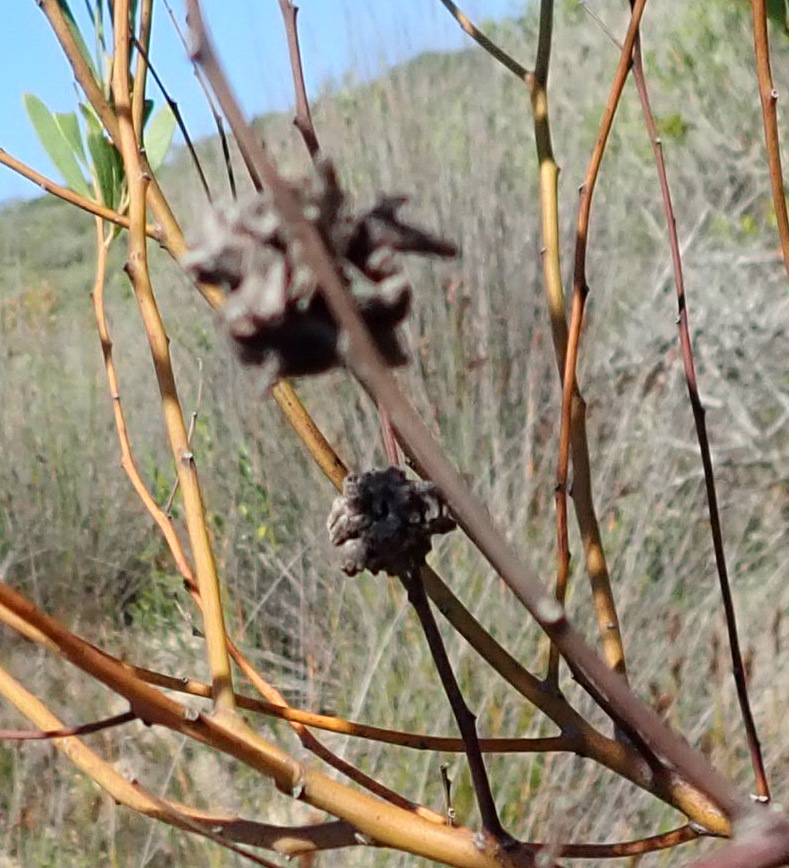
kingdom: Animalia
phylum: Arthropoda
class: Insecta
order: Diptera
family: Cecidomyiidae
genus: Dasineura
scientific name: Dasineura dielsi
